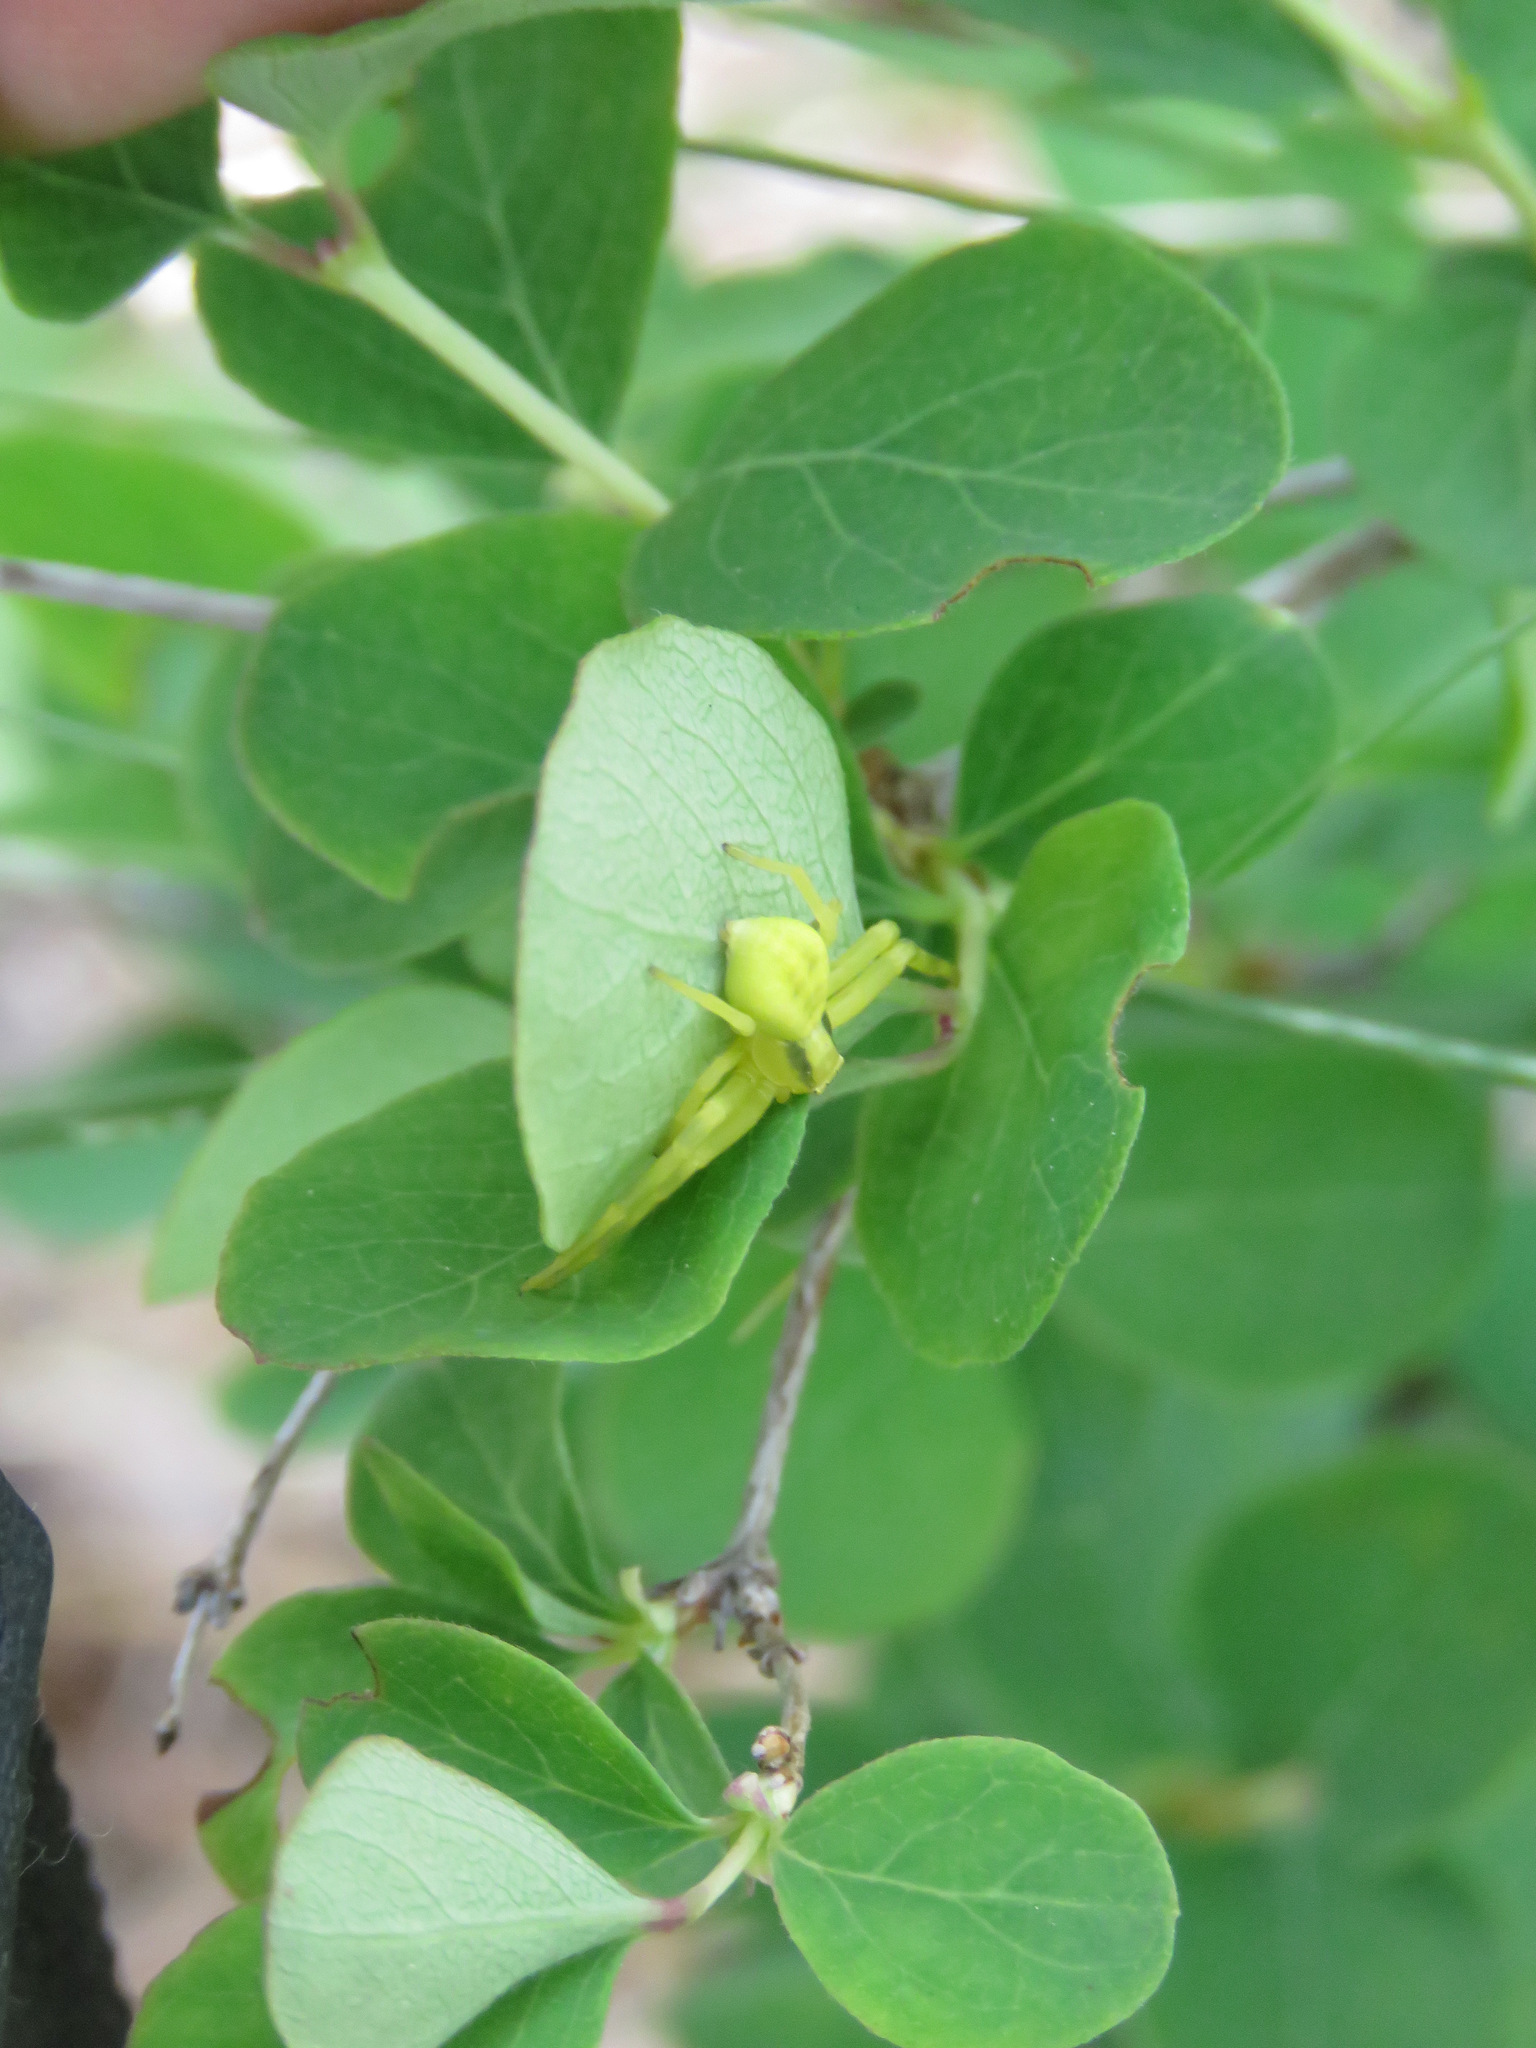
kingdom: Animalia
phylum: Arthropoda
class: Arachnida
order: Araneae
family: Thomisidae
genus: Misumena
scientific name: Misumena vatia
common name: Goldenrod crab spider
